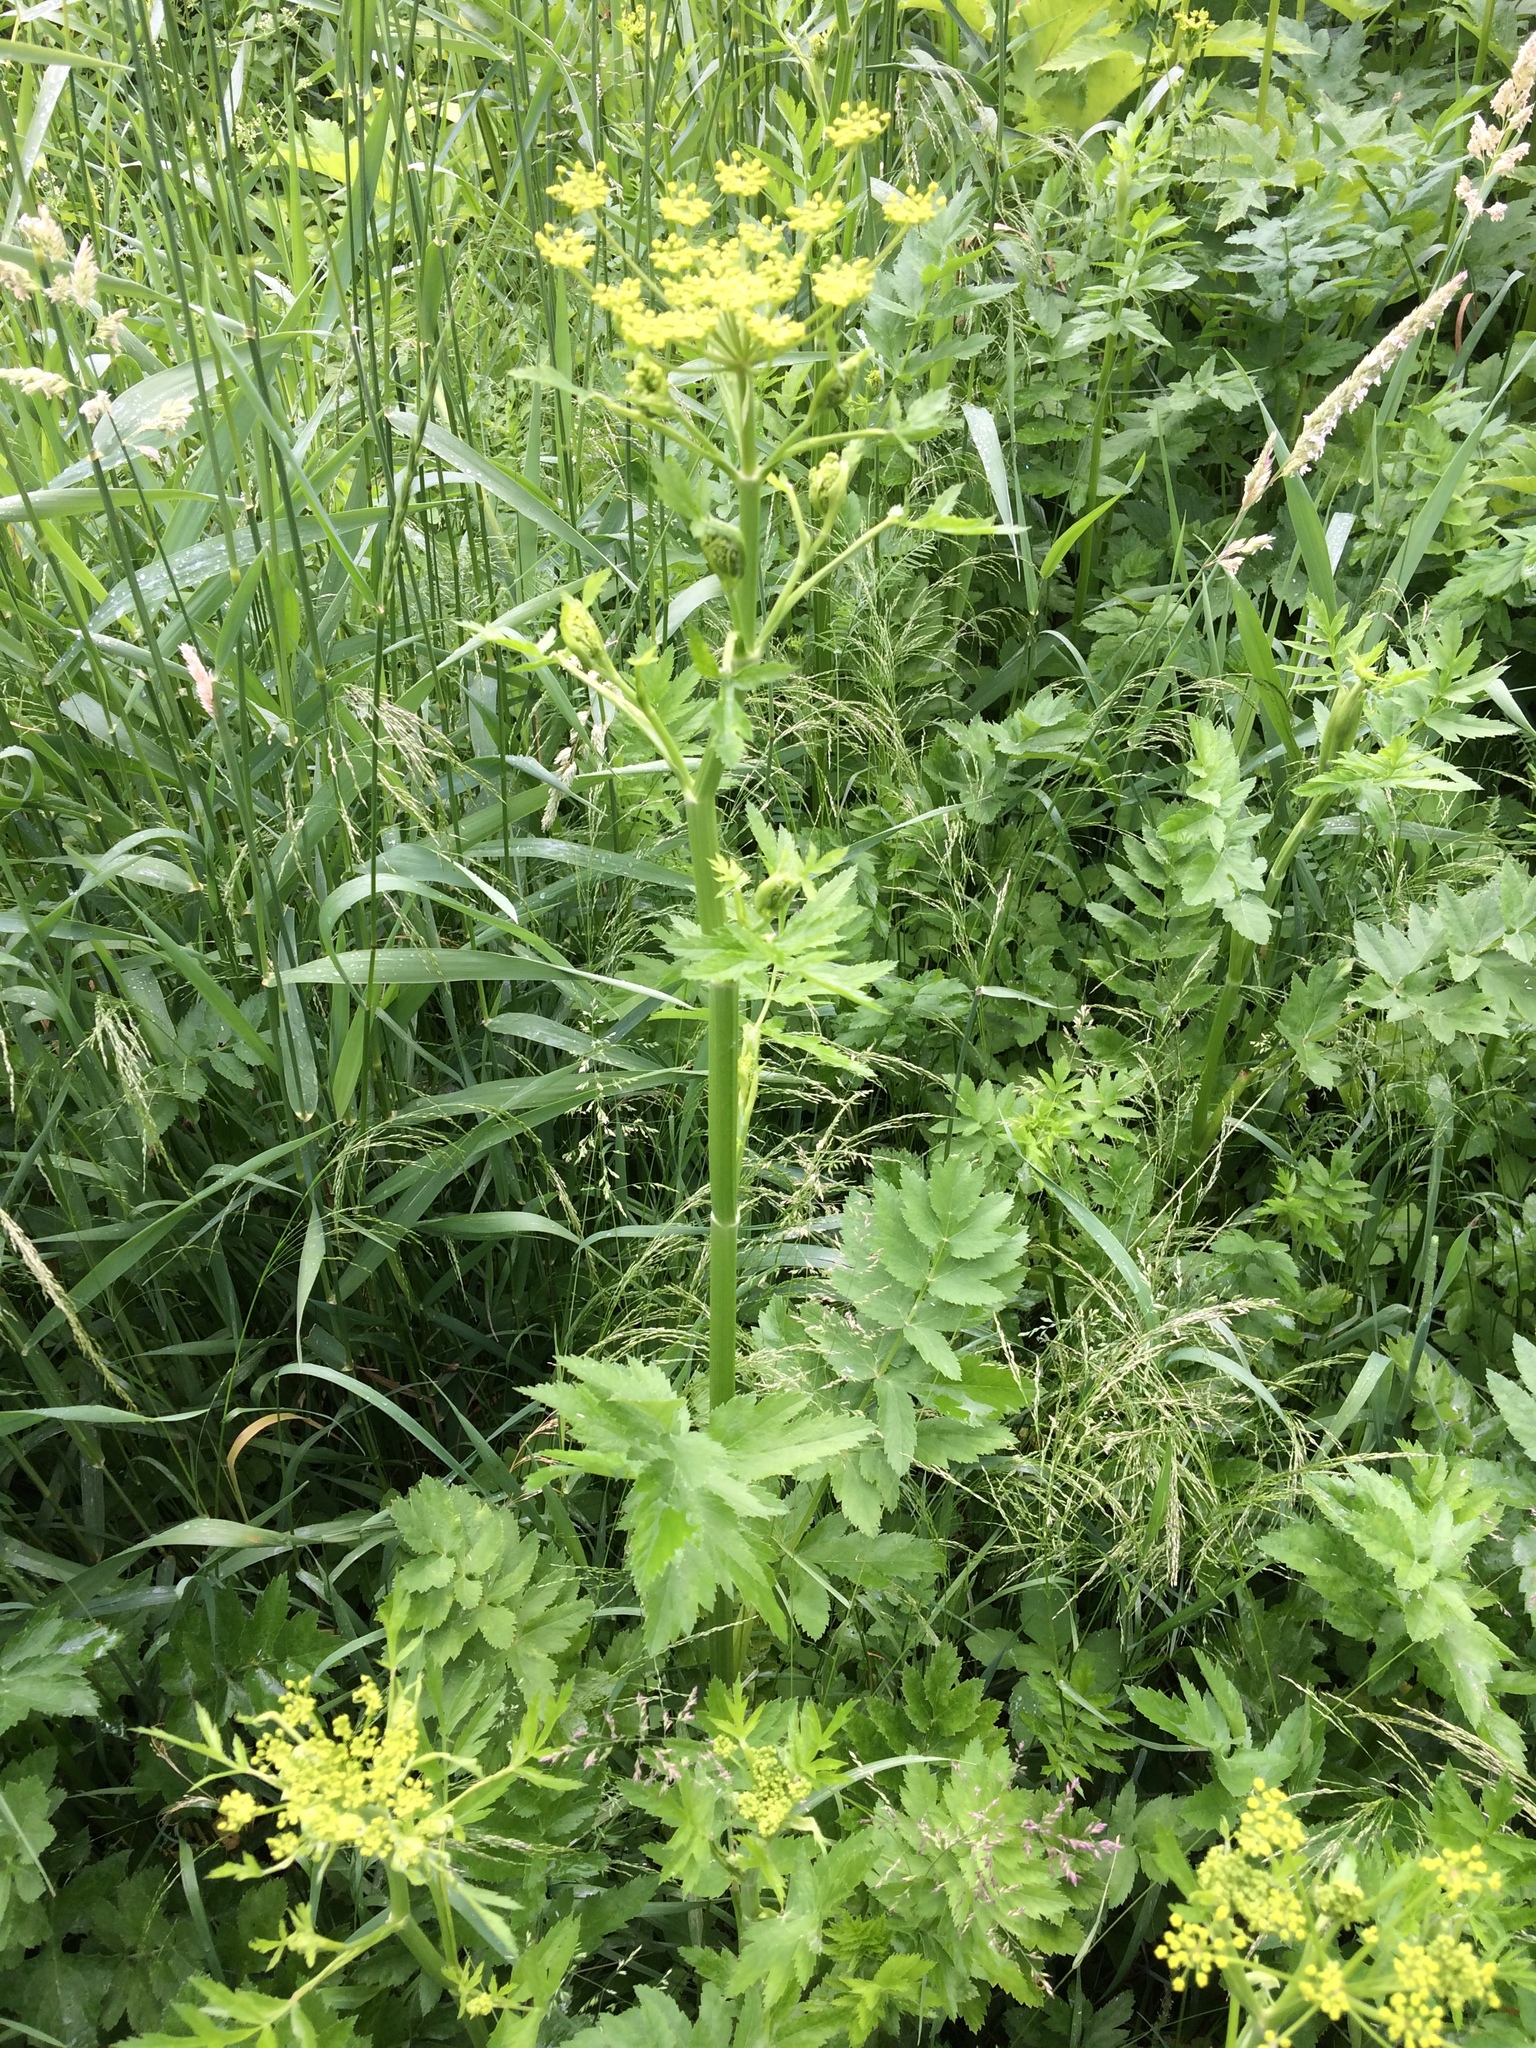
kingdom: Plantae
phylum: Tracheophyta
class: Magnoliopsida
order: Apiales
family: Apiaceae
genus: Pastinaca
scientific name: Pastinaca sativa
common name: Wild parsnip
